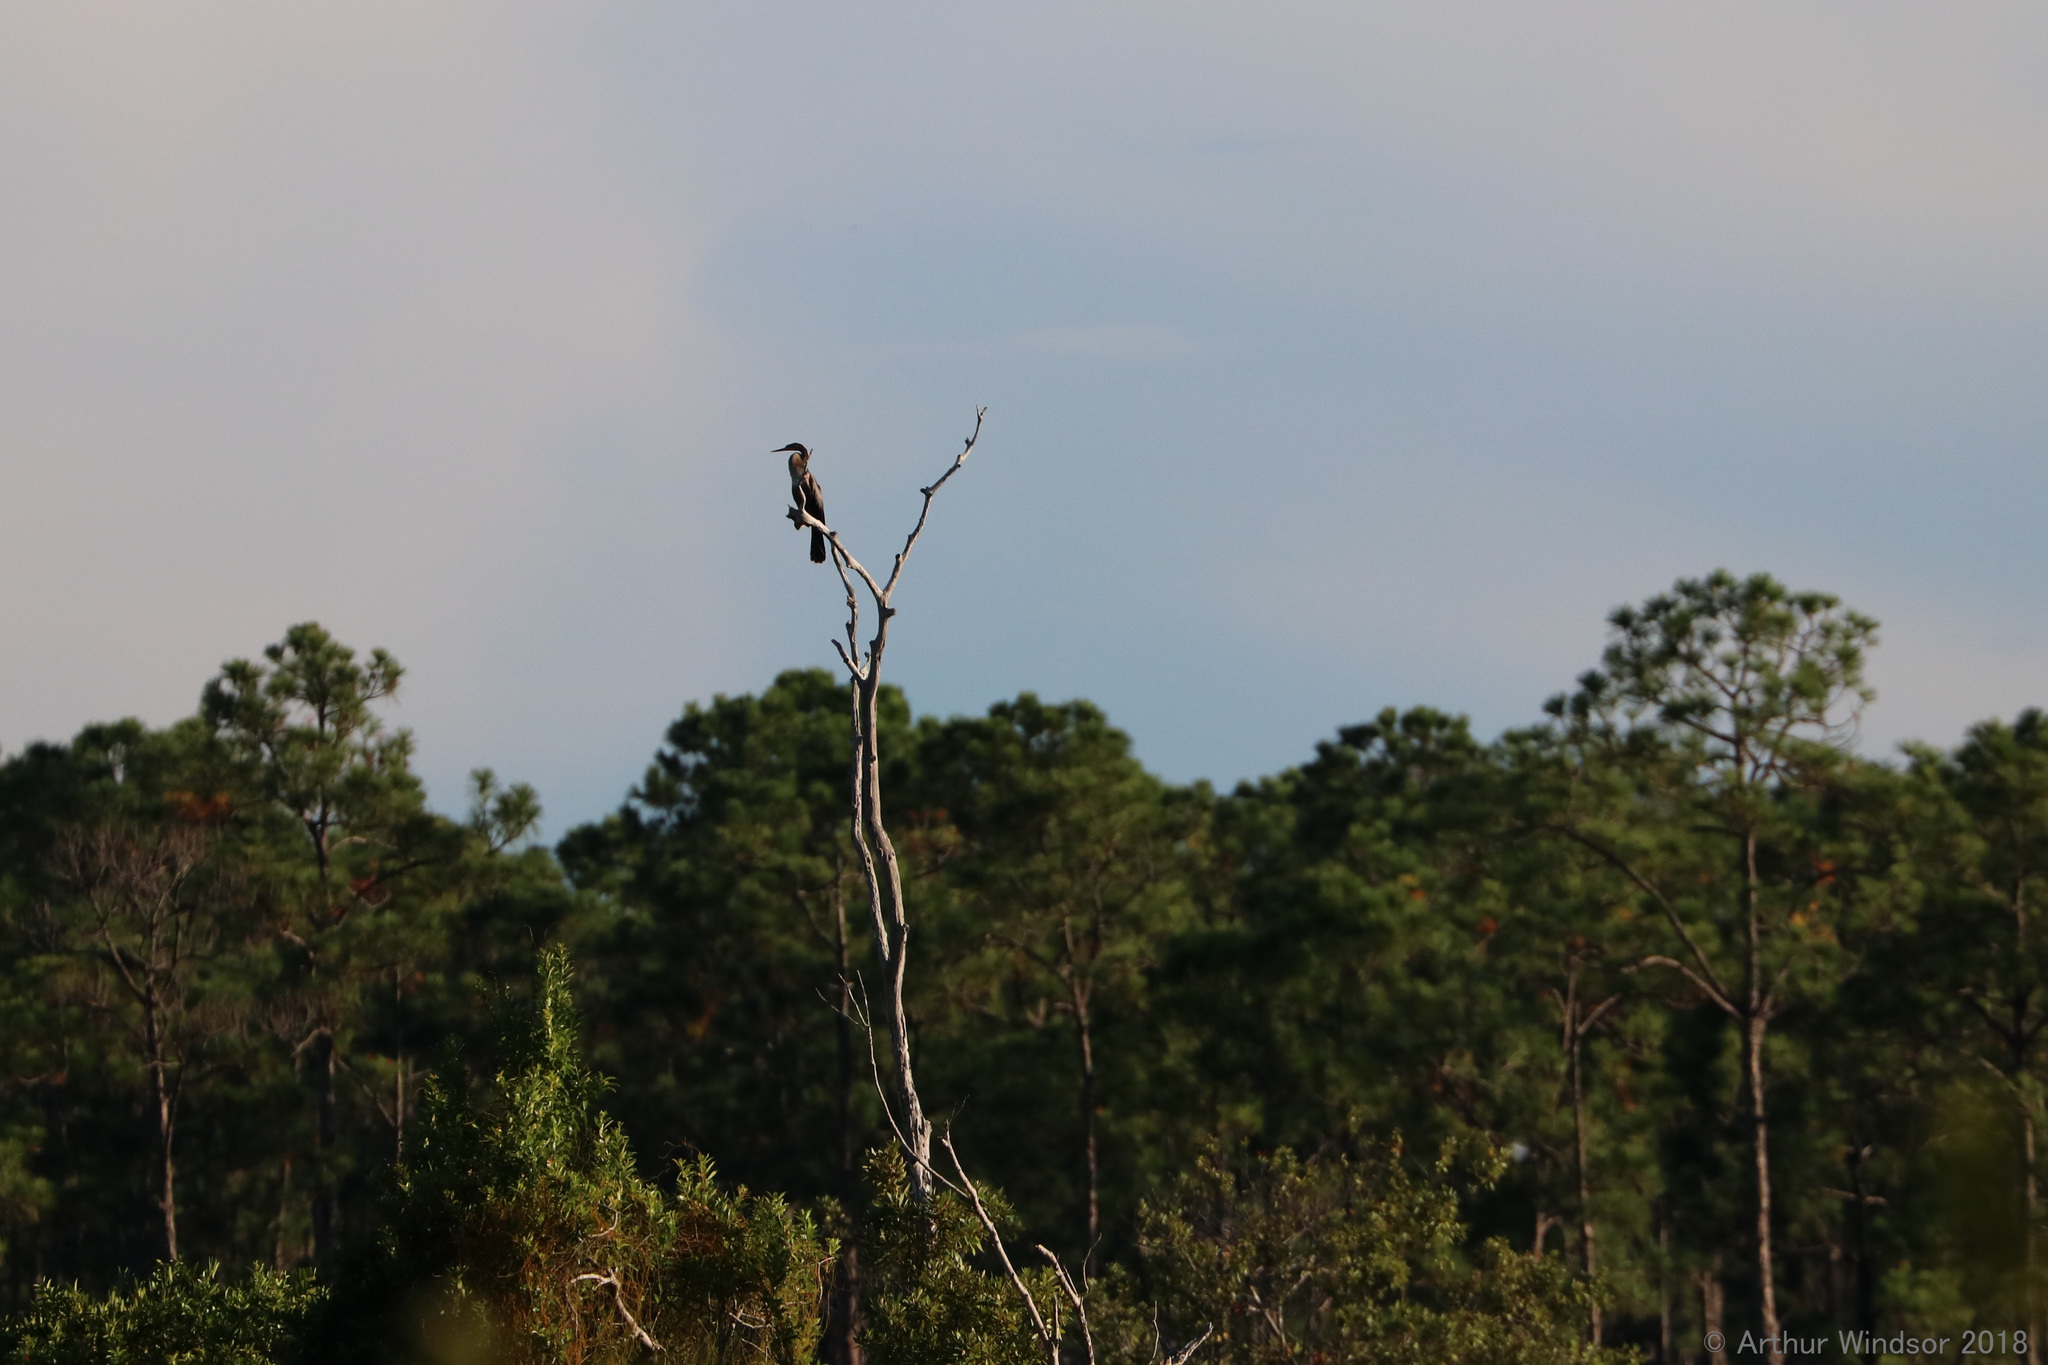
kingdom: Animalia
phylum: Chordata
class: Aves
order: Suliformes
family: Anhingidae
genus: Anhinga
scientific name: Anhinga anhinga
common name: Anhinga
